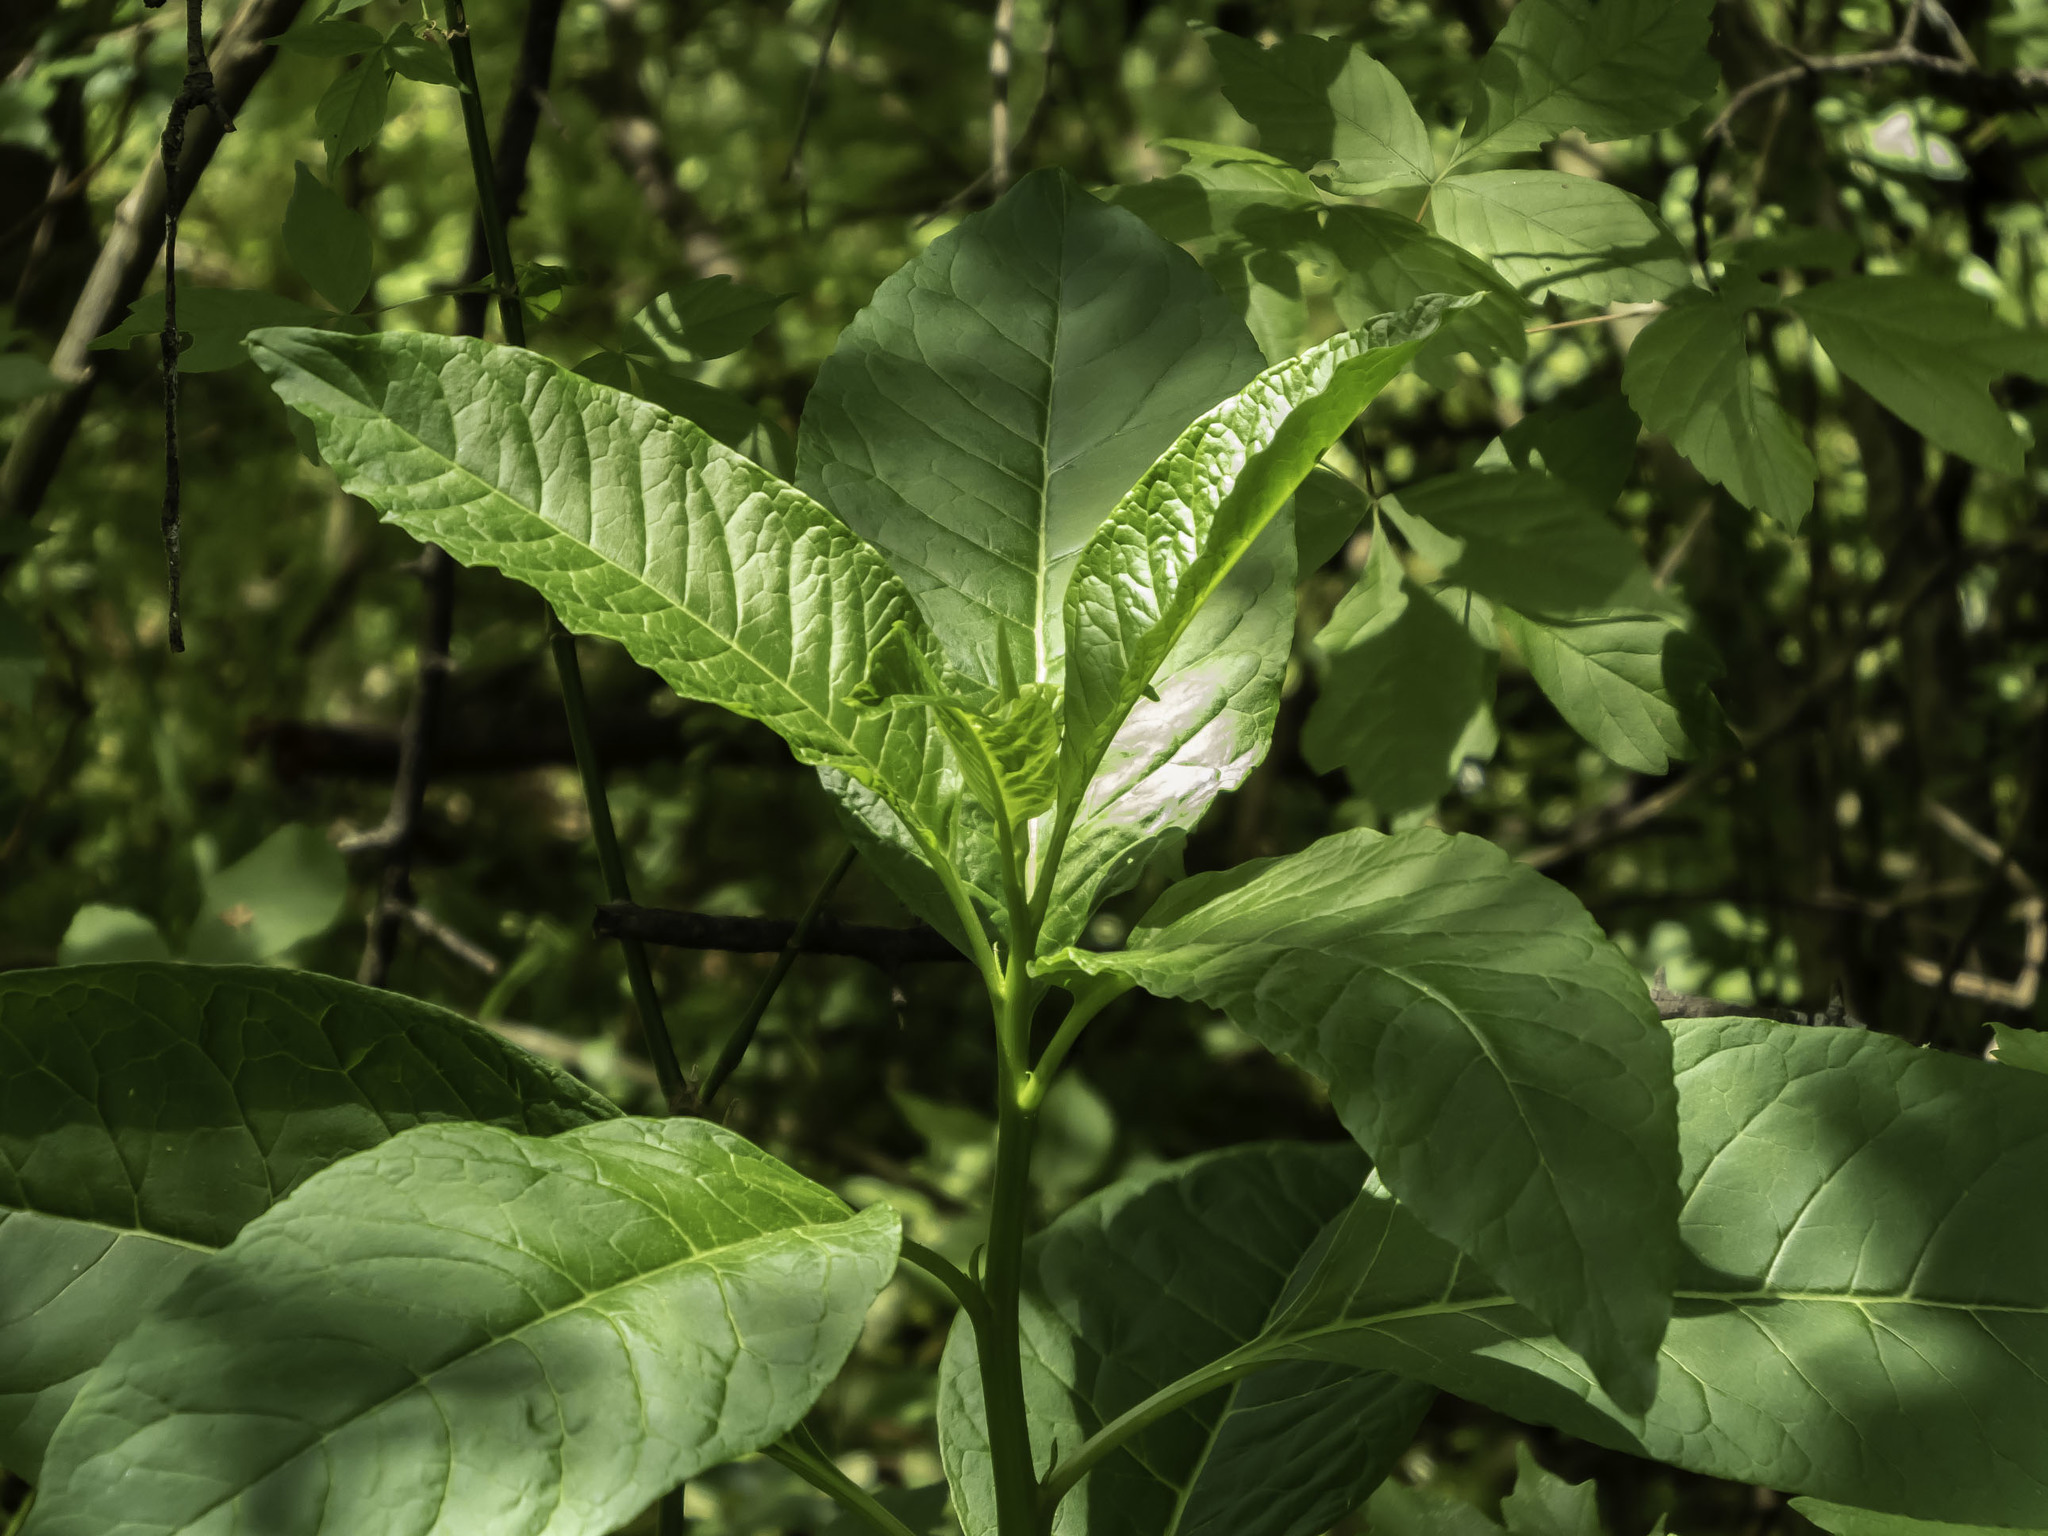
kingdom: Plantae
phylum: Tracheophyta
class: Magnoliopsida
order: Caryophyllales
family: Phytolaccaceae
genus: Phytolacca
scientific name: Phytolacca americana
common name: American pokeweed
